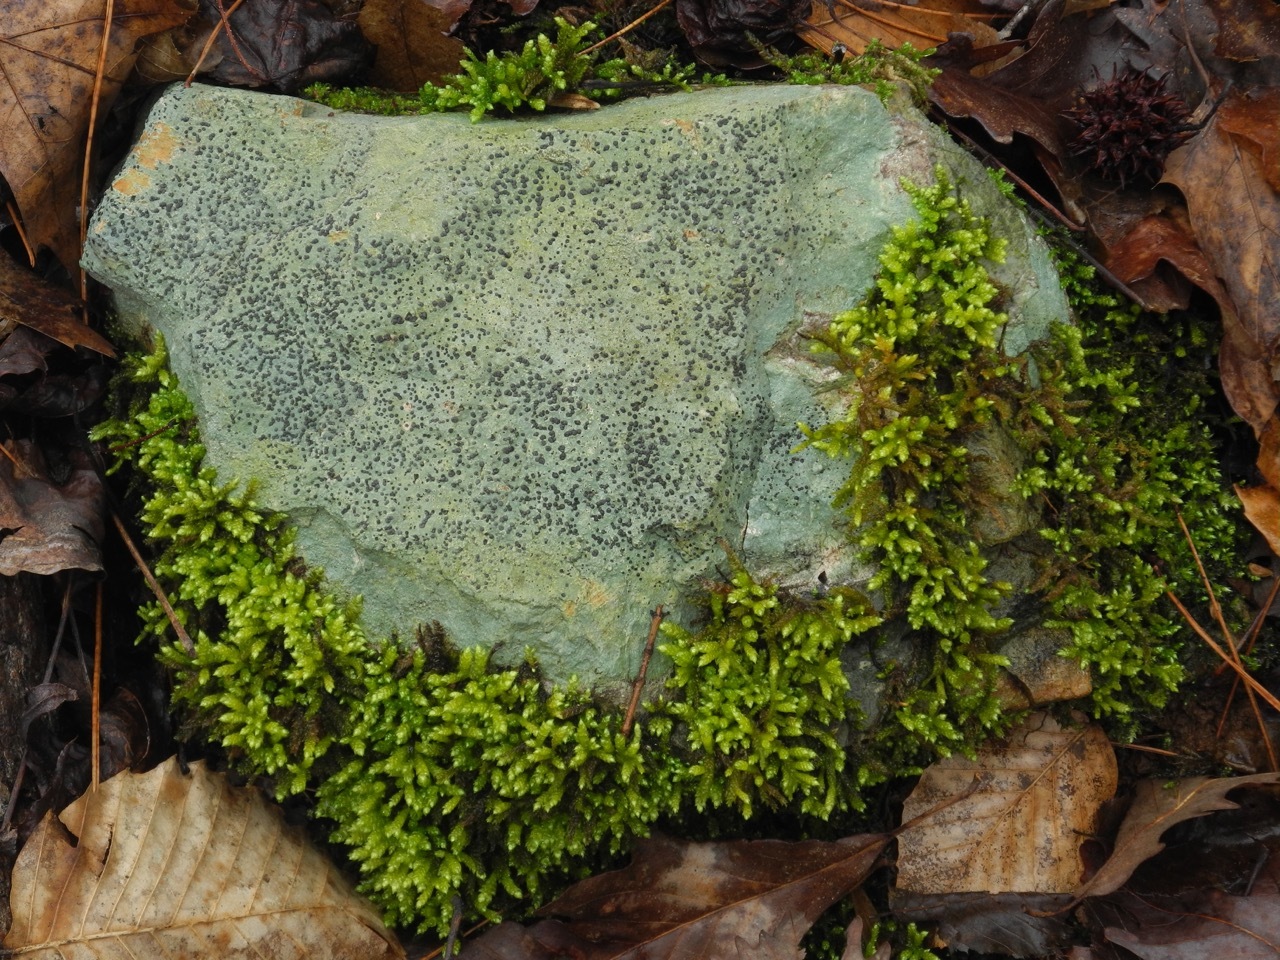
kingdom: Plantae
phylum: Bryophyta
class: Bryopsida
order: Hypnales
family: Brachytheciaceae
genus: Bryoandersonia
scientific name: Bryoandersonia illecebra
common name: Spoon-leaved moss
